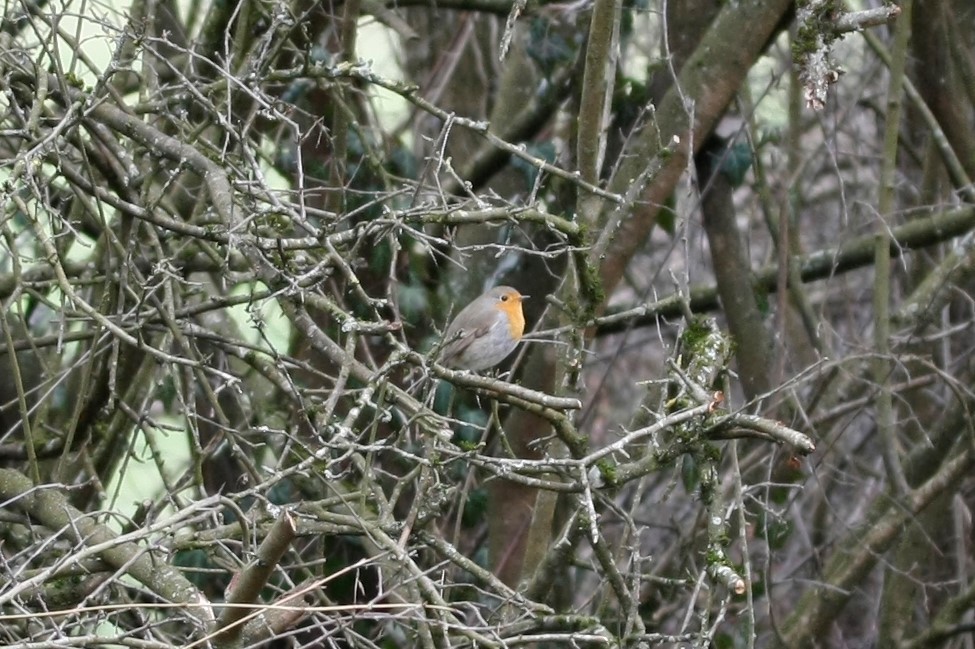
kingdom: Animalia
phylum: Chordata
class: Aves
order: Passeriformes
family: Muscicapidae
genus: Erithacus
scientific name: Erithacus rubecula
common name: European robin
